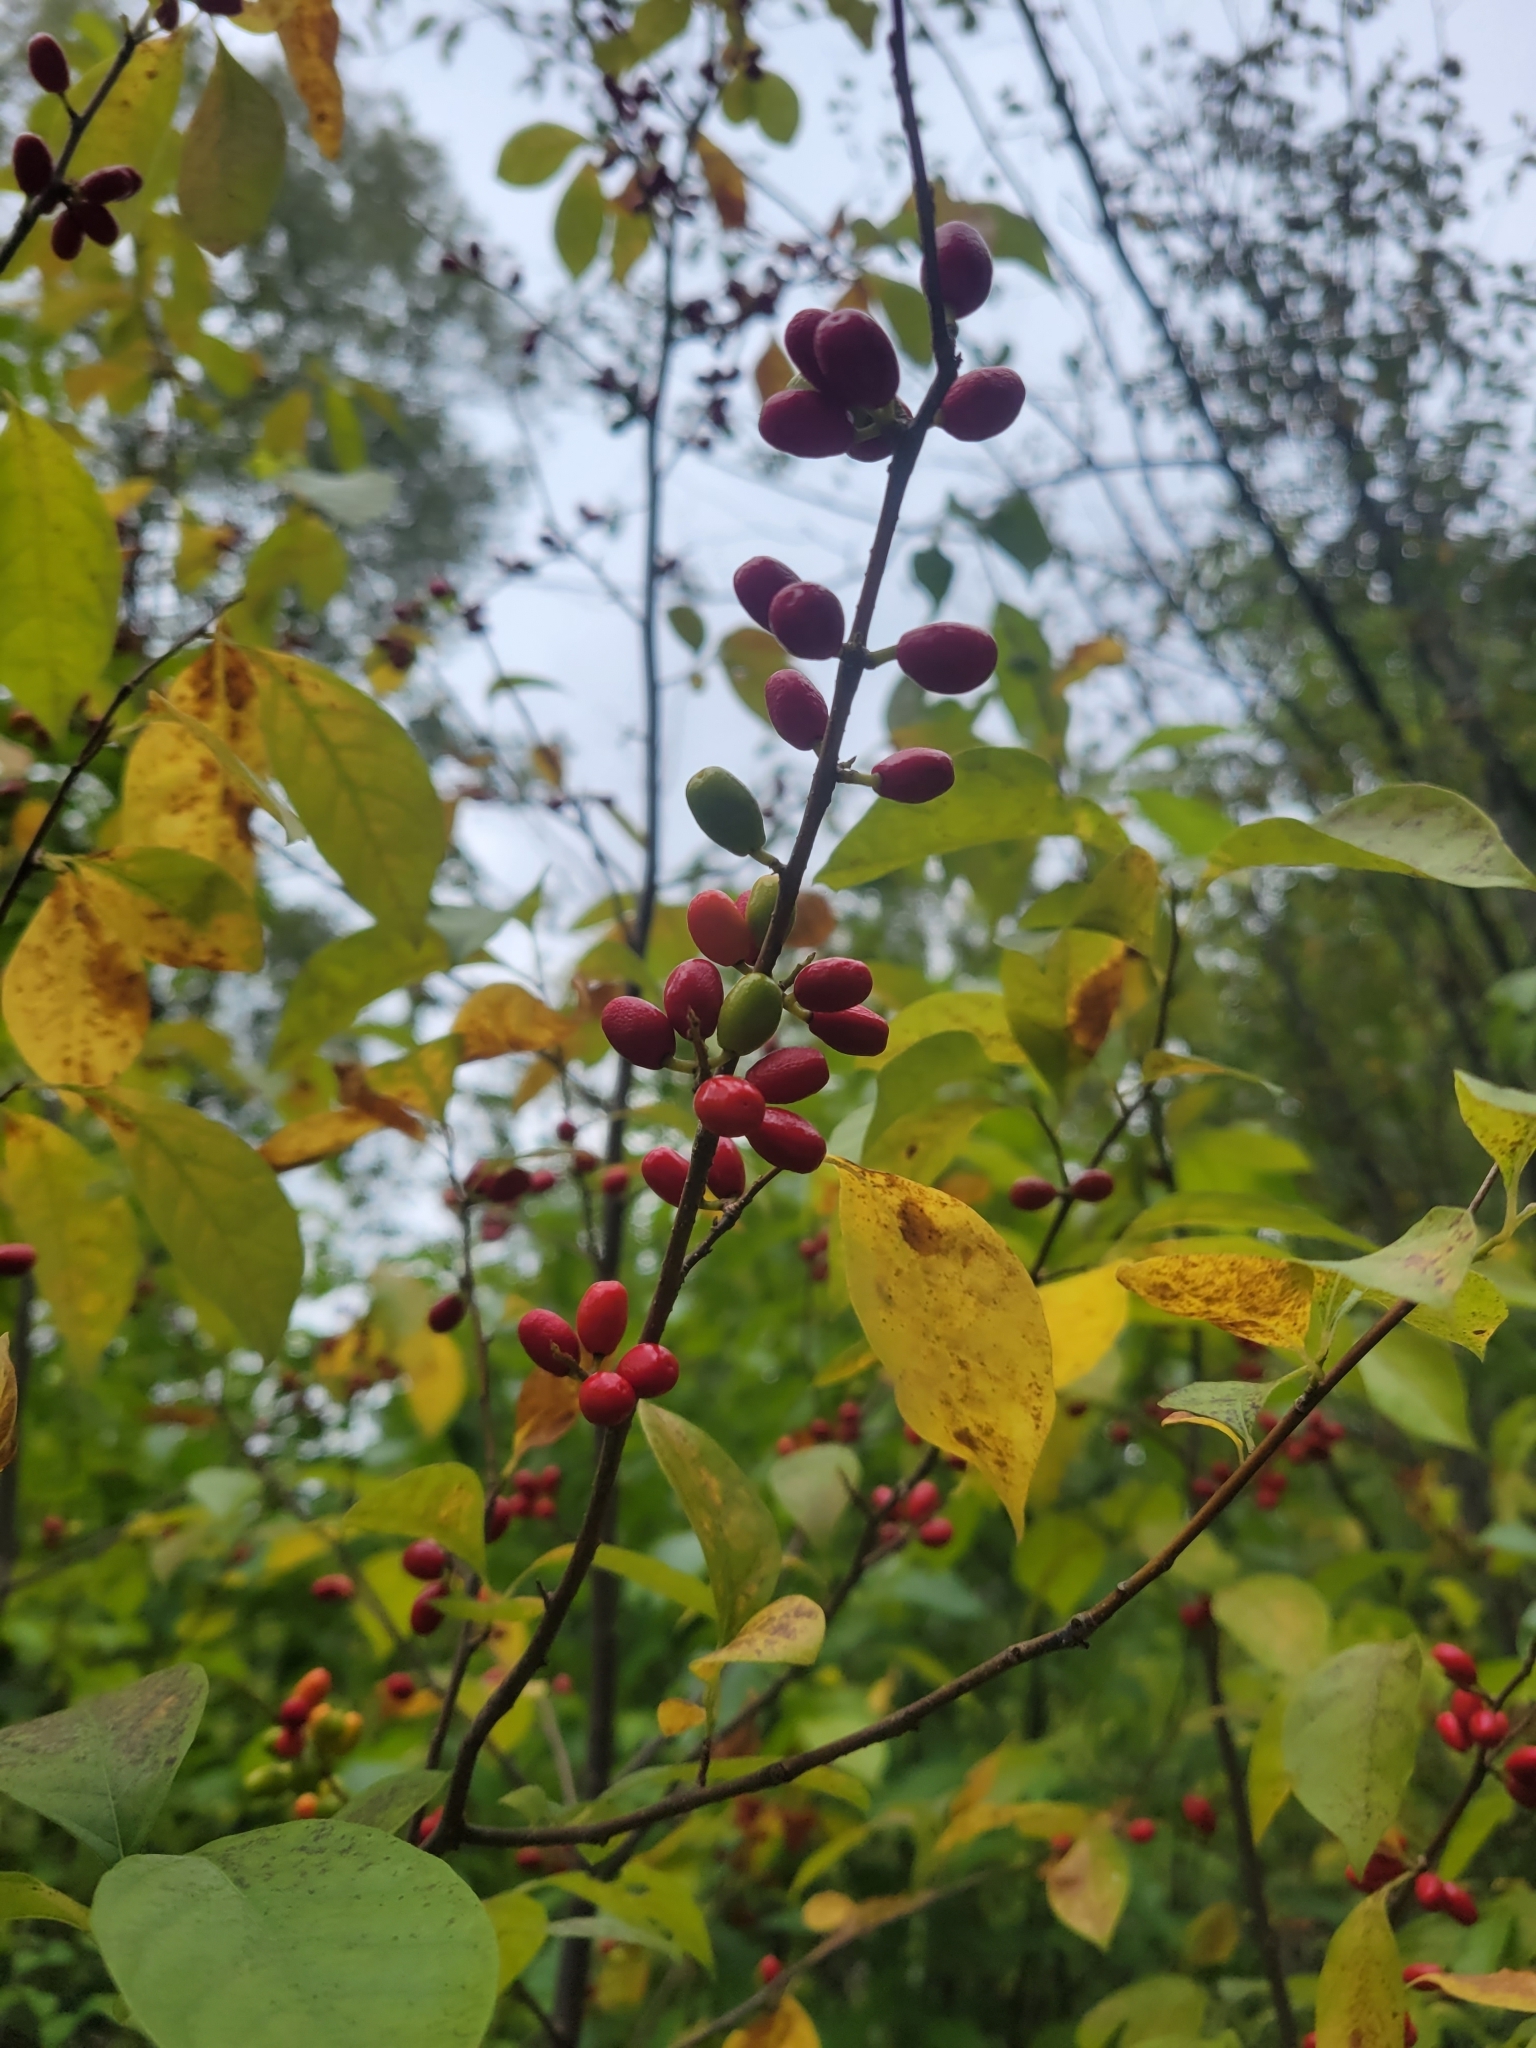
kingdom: Plantae
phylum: Tracheophyta
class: Magnoliopsida
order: Laurales
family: Lauraceae
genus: Lindera
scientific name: Lindera benzoin
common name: Spicebush
